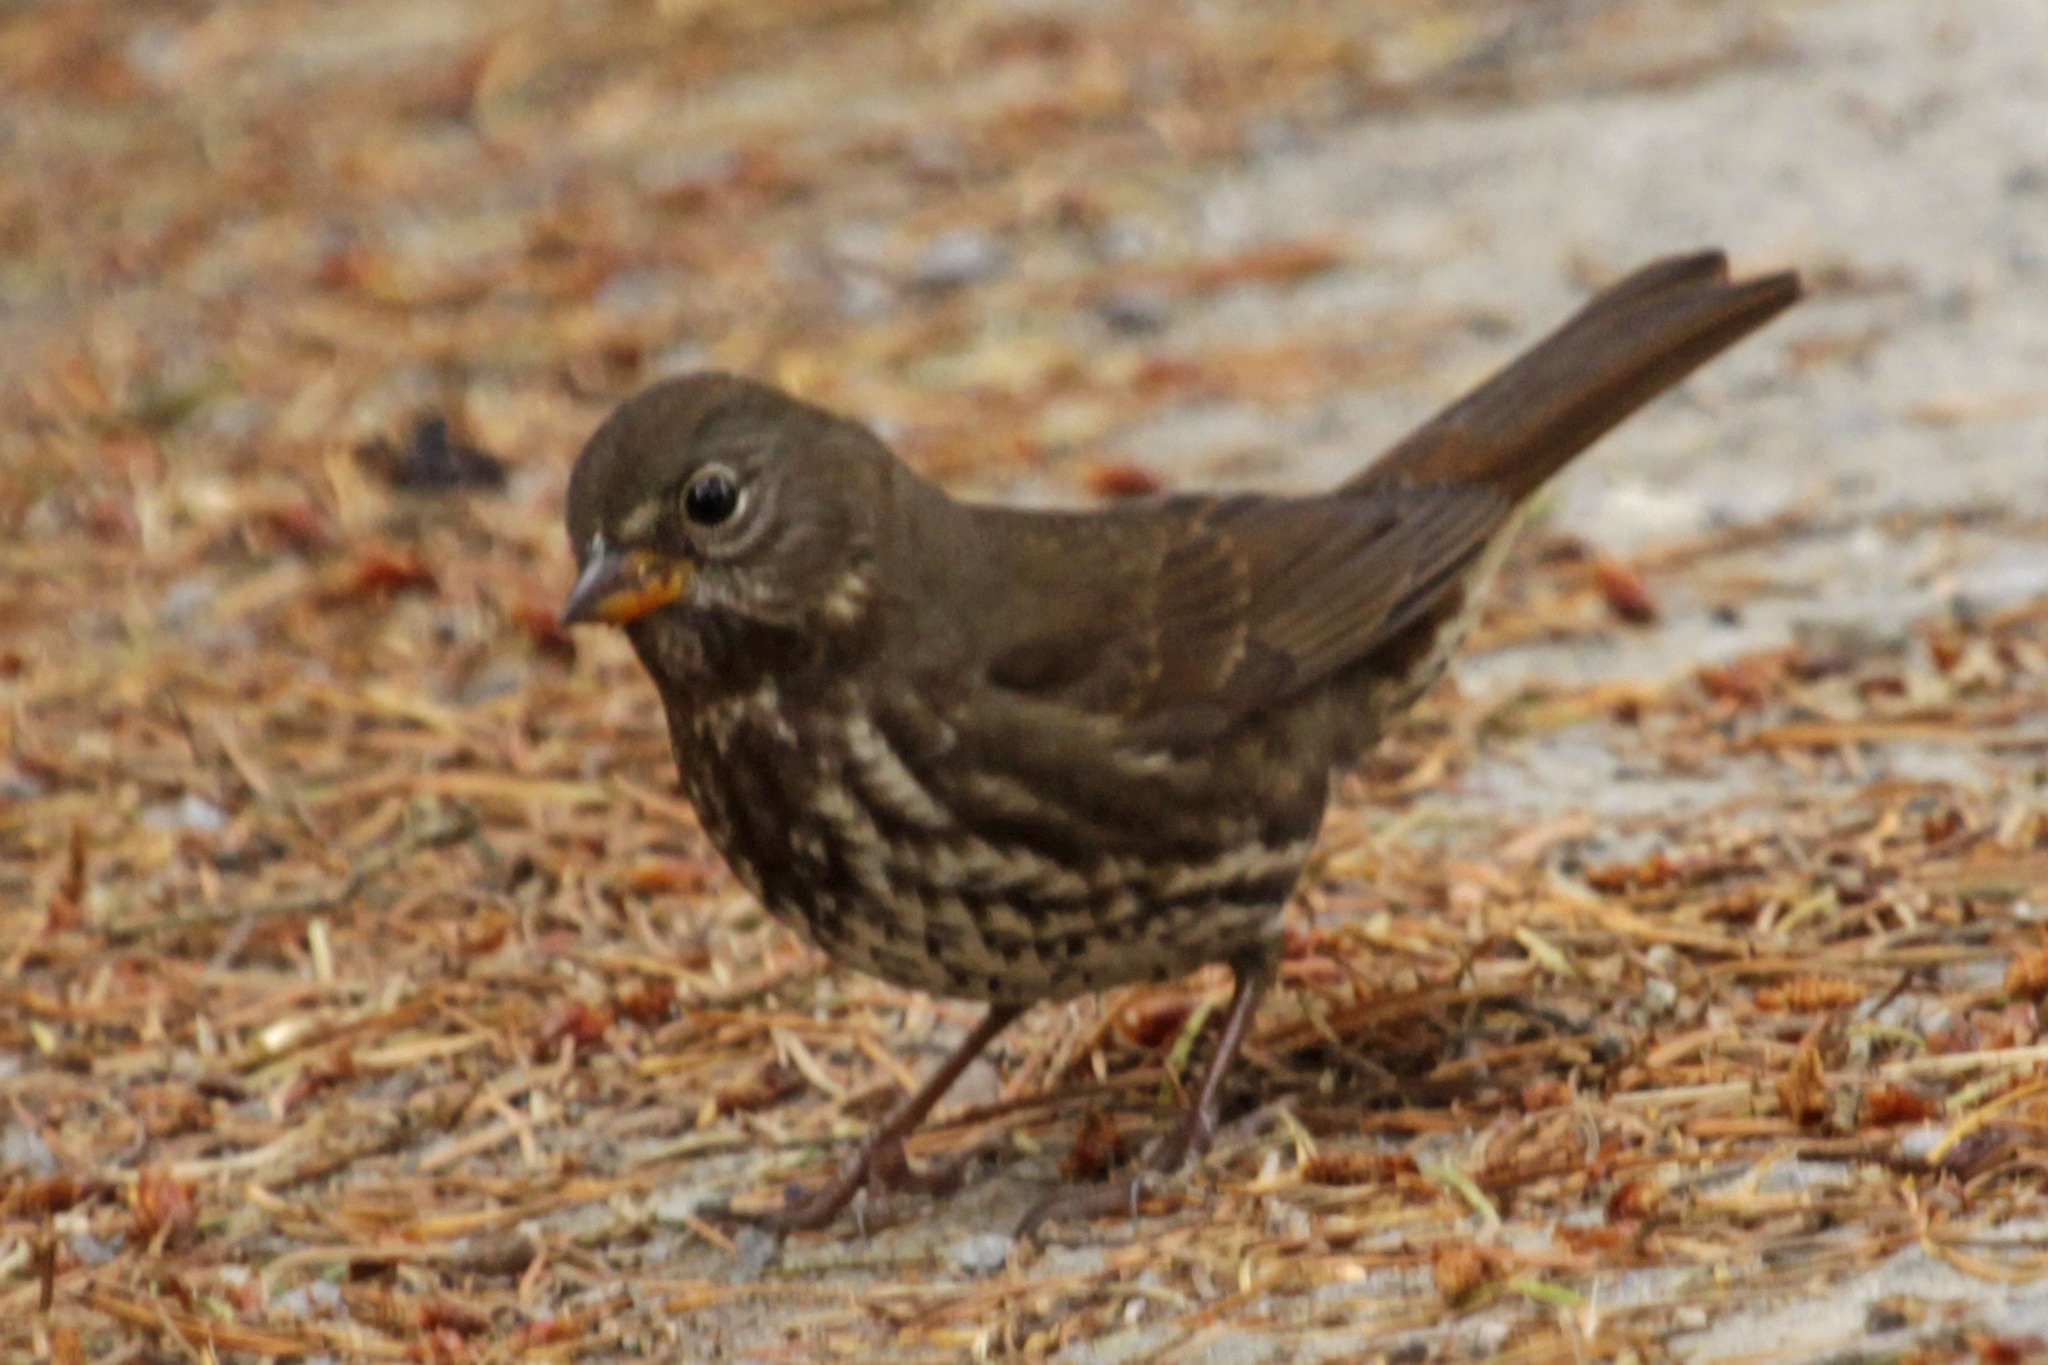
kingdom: Animalia
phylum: Chordata
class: Aves
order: Passeriformes
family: Passerellidae
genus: Passerella
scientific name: Passerella iliaca
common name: Fox sparrow
